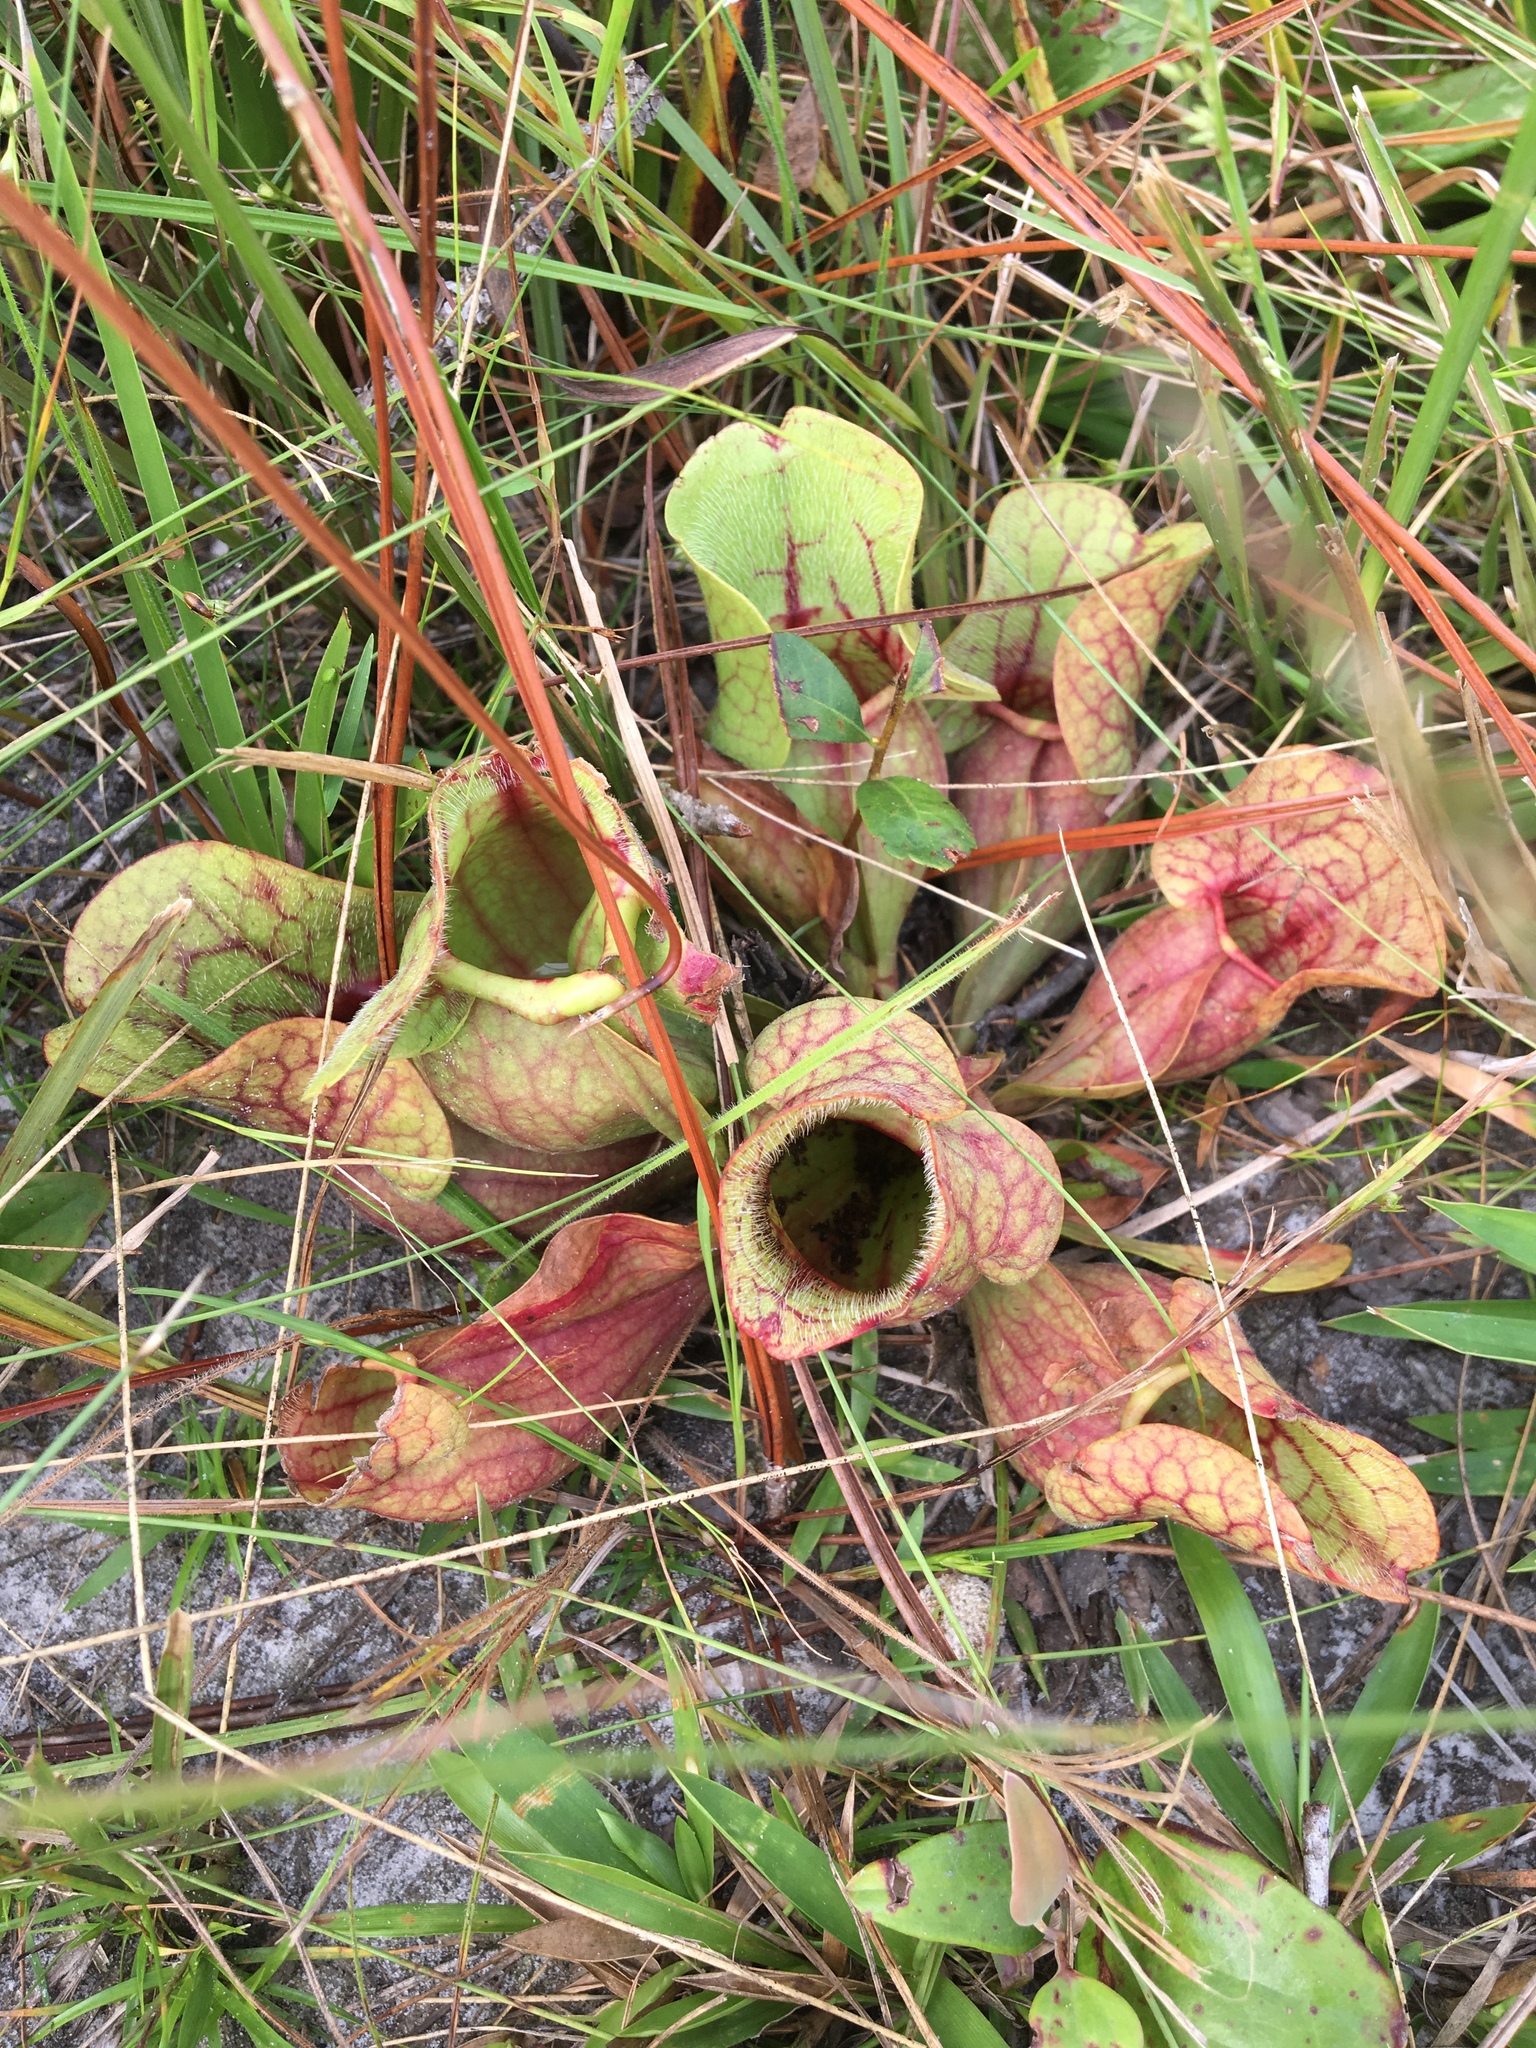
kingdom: Plantae
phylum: Tracheophyta
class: Magnoliopsida
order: Ericales
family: Sarraceniaceae
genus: Sarracenia
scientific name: Sarracenia rosea
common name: Pink pitcherplant
